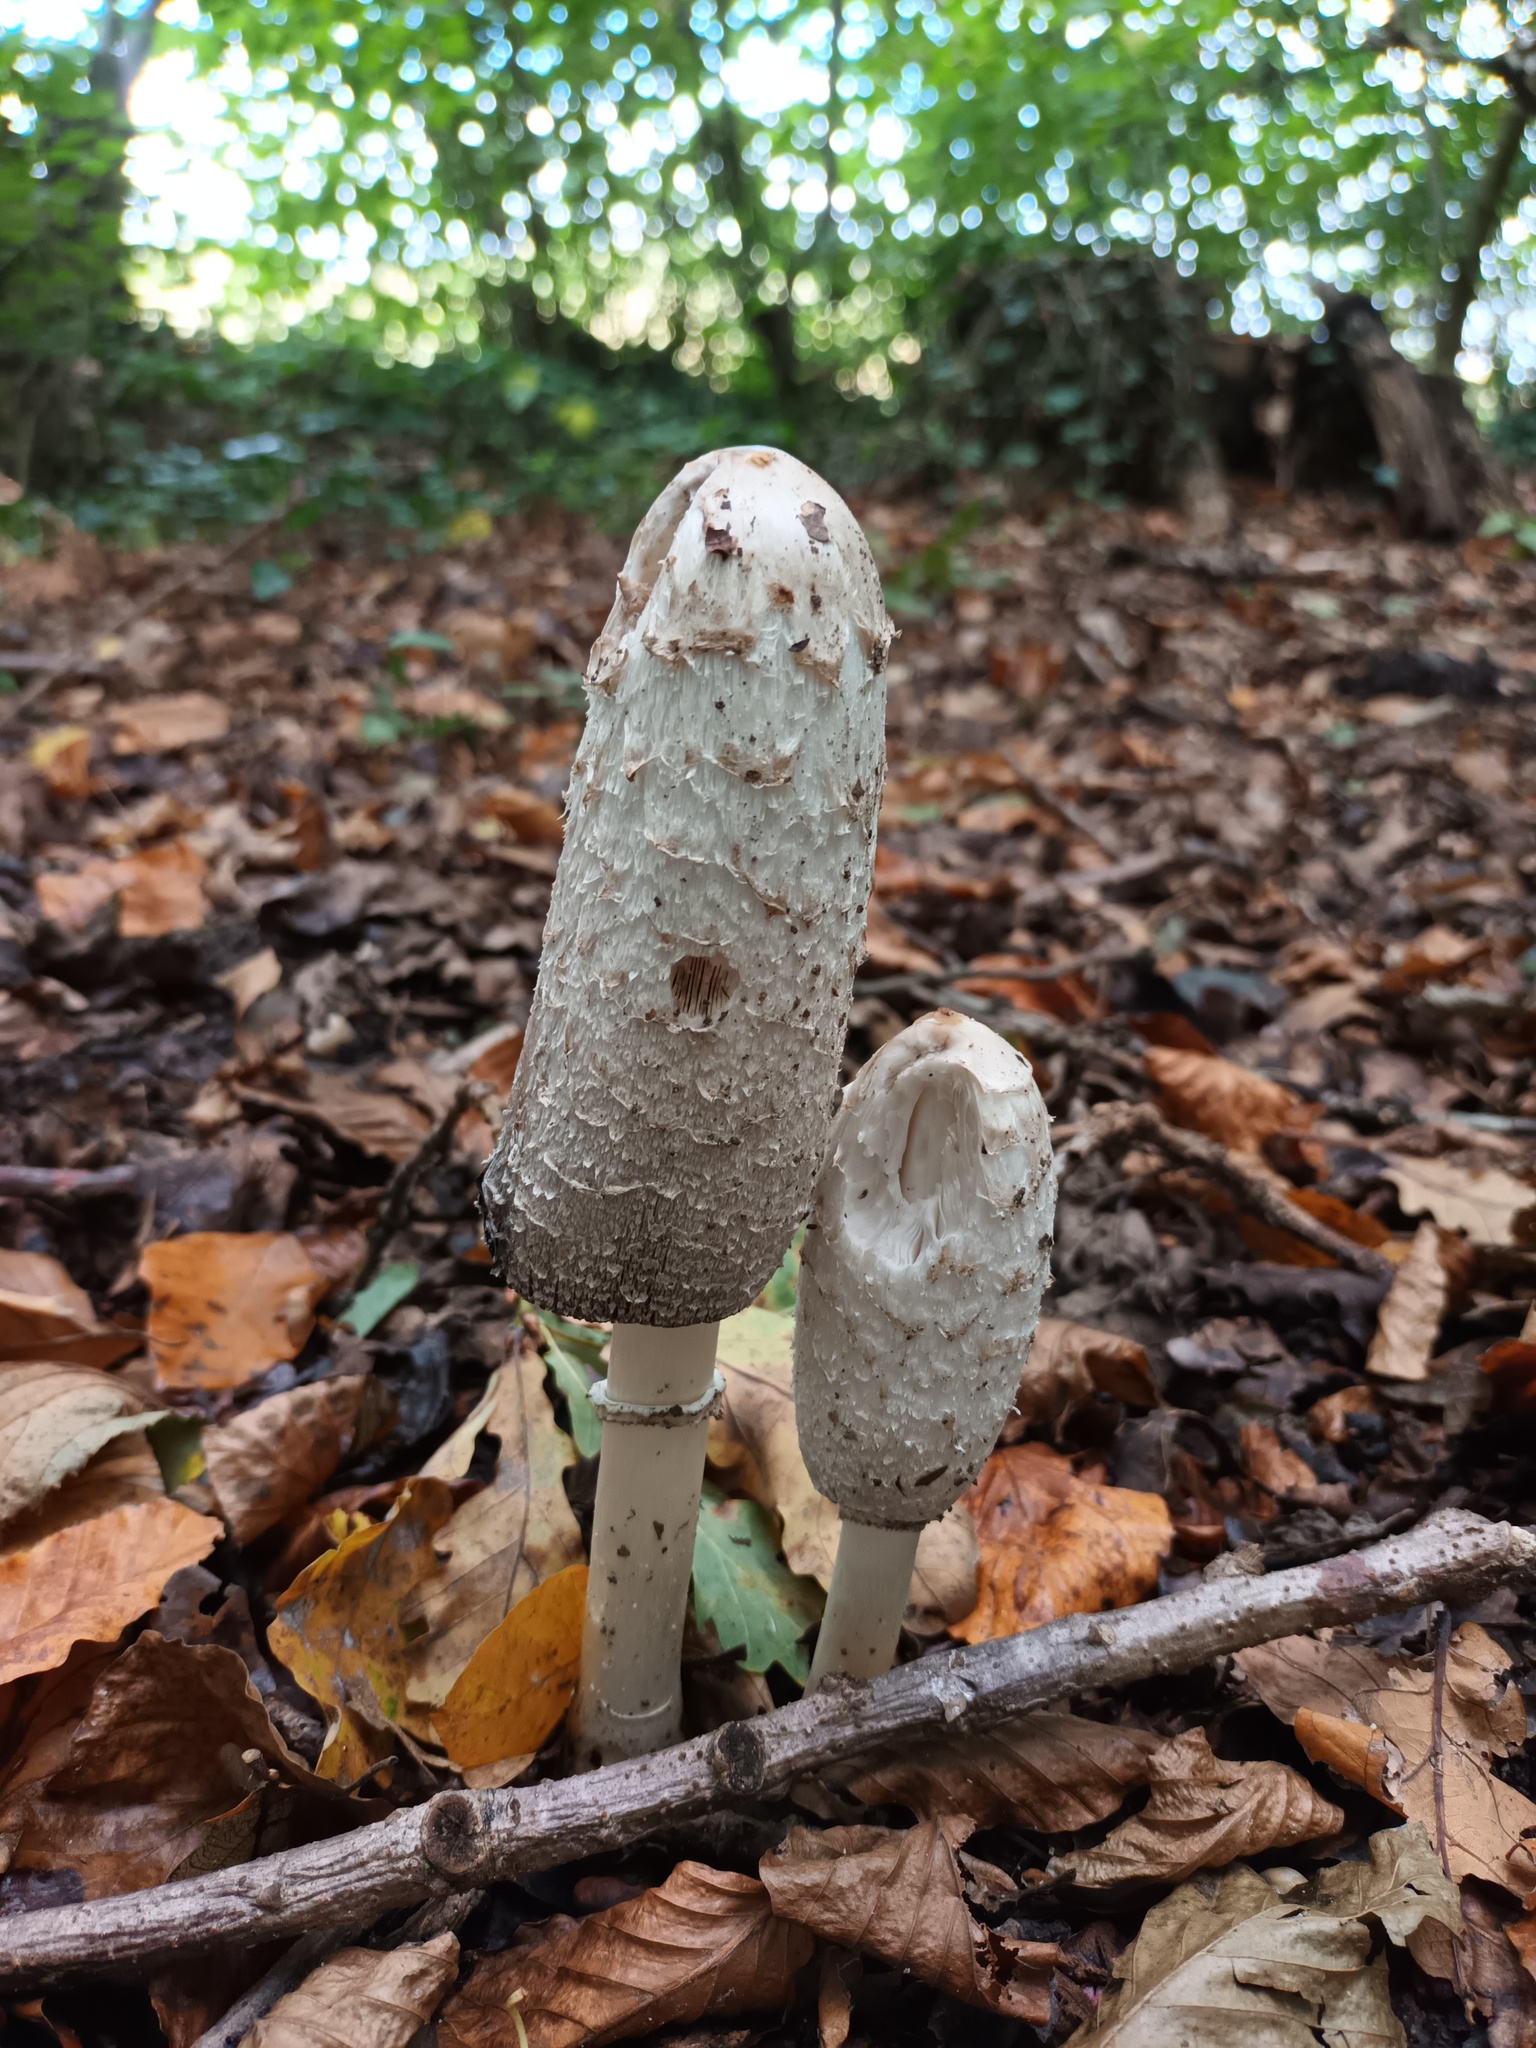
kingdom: Fungi
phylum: Basidiomycota
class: Agaricomycetes
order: Agaricales
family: Agaricaceae
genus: Coprinus
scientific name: Coprinus comatus
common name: Lawyer's wig
